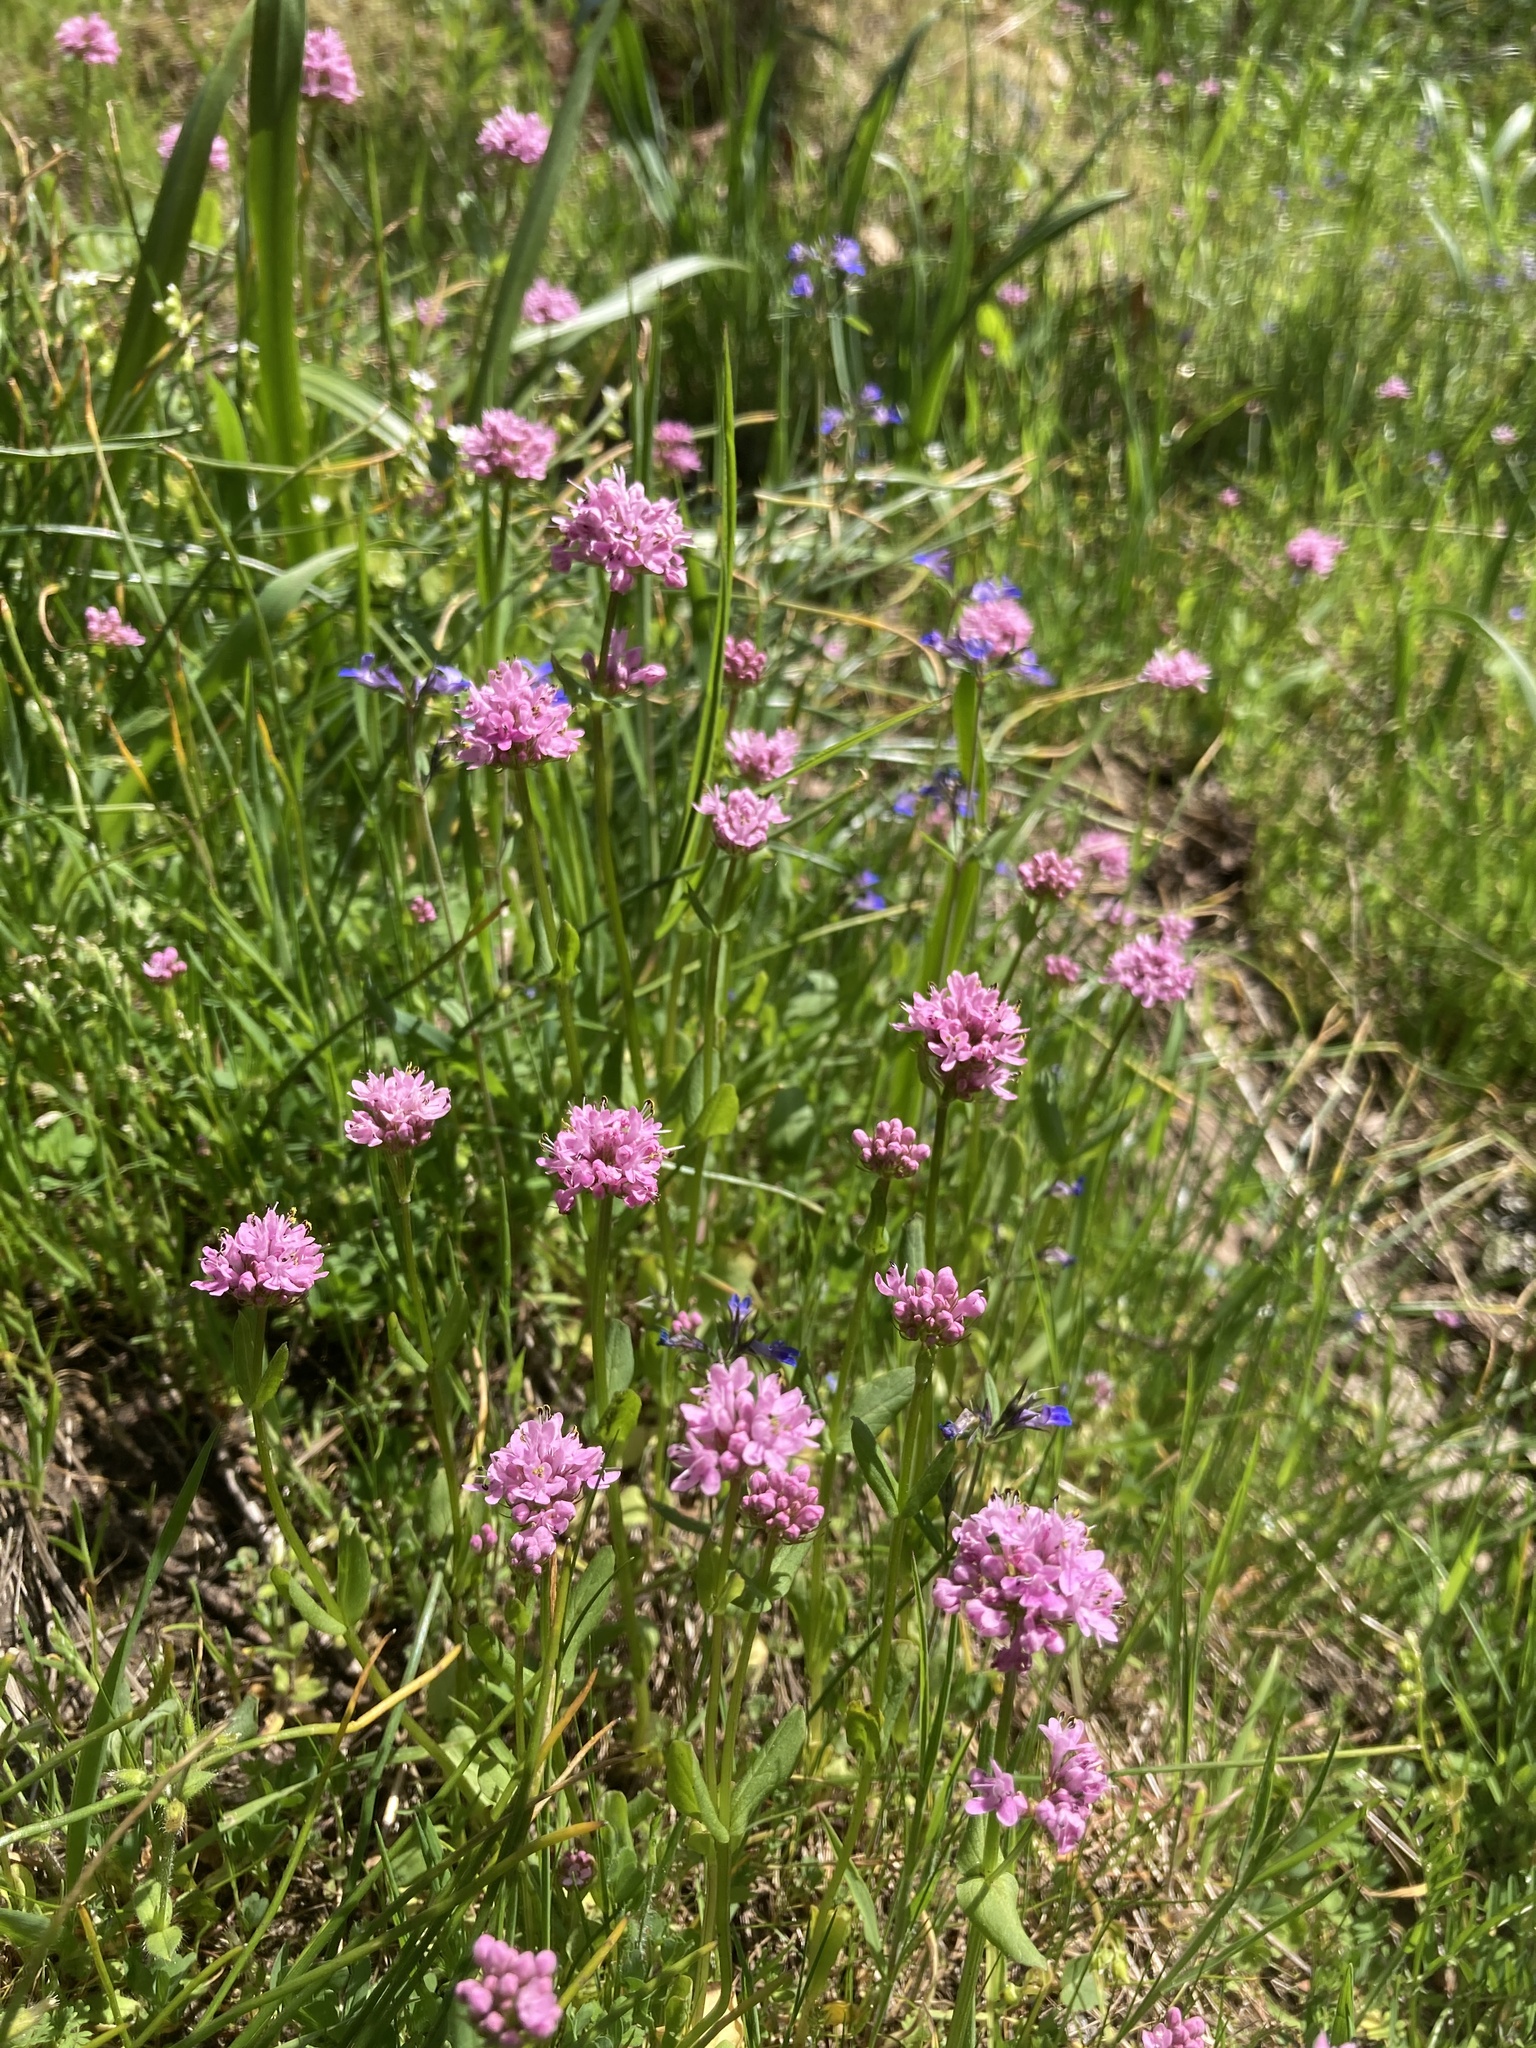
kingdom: Plantae
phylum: Tracheophyta
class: Magnoliopsida
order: Dipsacales
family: Caprifoliaceae
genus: Plectritis
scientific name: Plectritis congesta
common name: Pink plectritis
